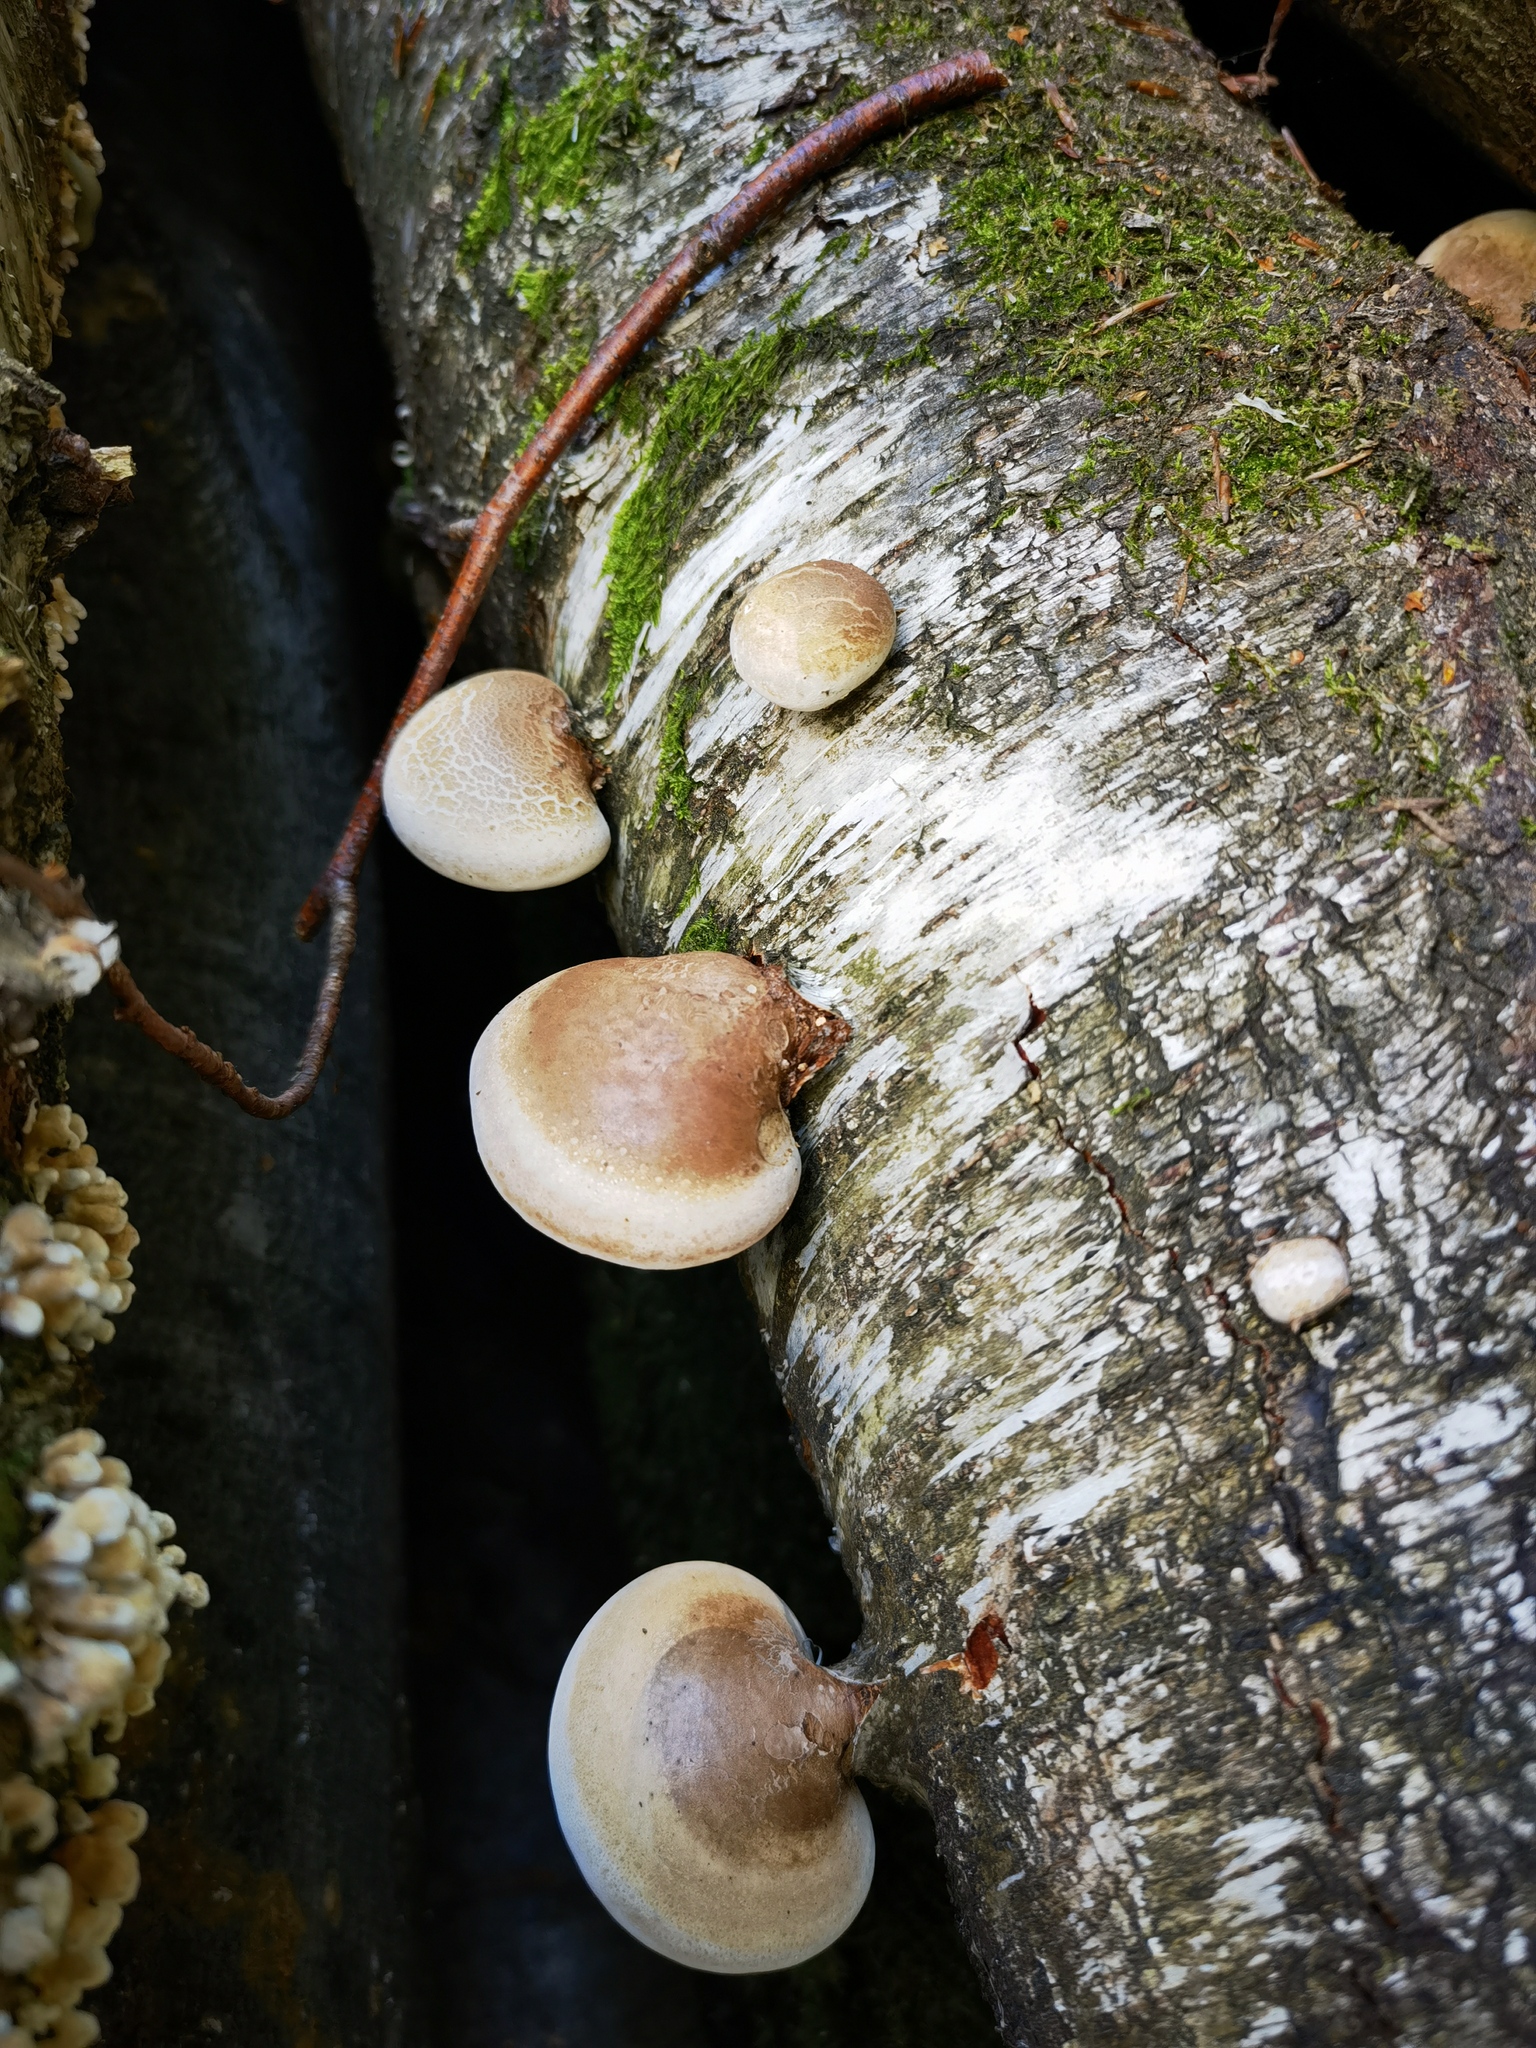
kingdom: Fungi
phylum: Basidiomycota
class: Agaricomycetes
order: Polyporales
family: Fomitopsidaceae
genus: Fomitopsis
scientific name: Fomitopsis betulina
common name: Birch polypore
